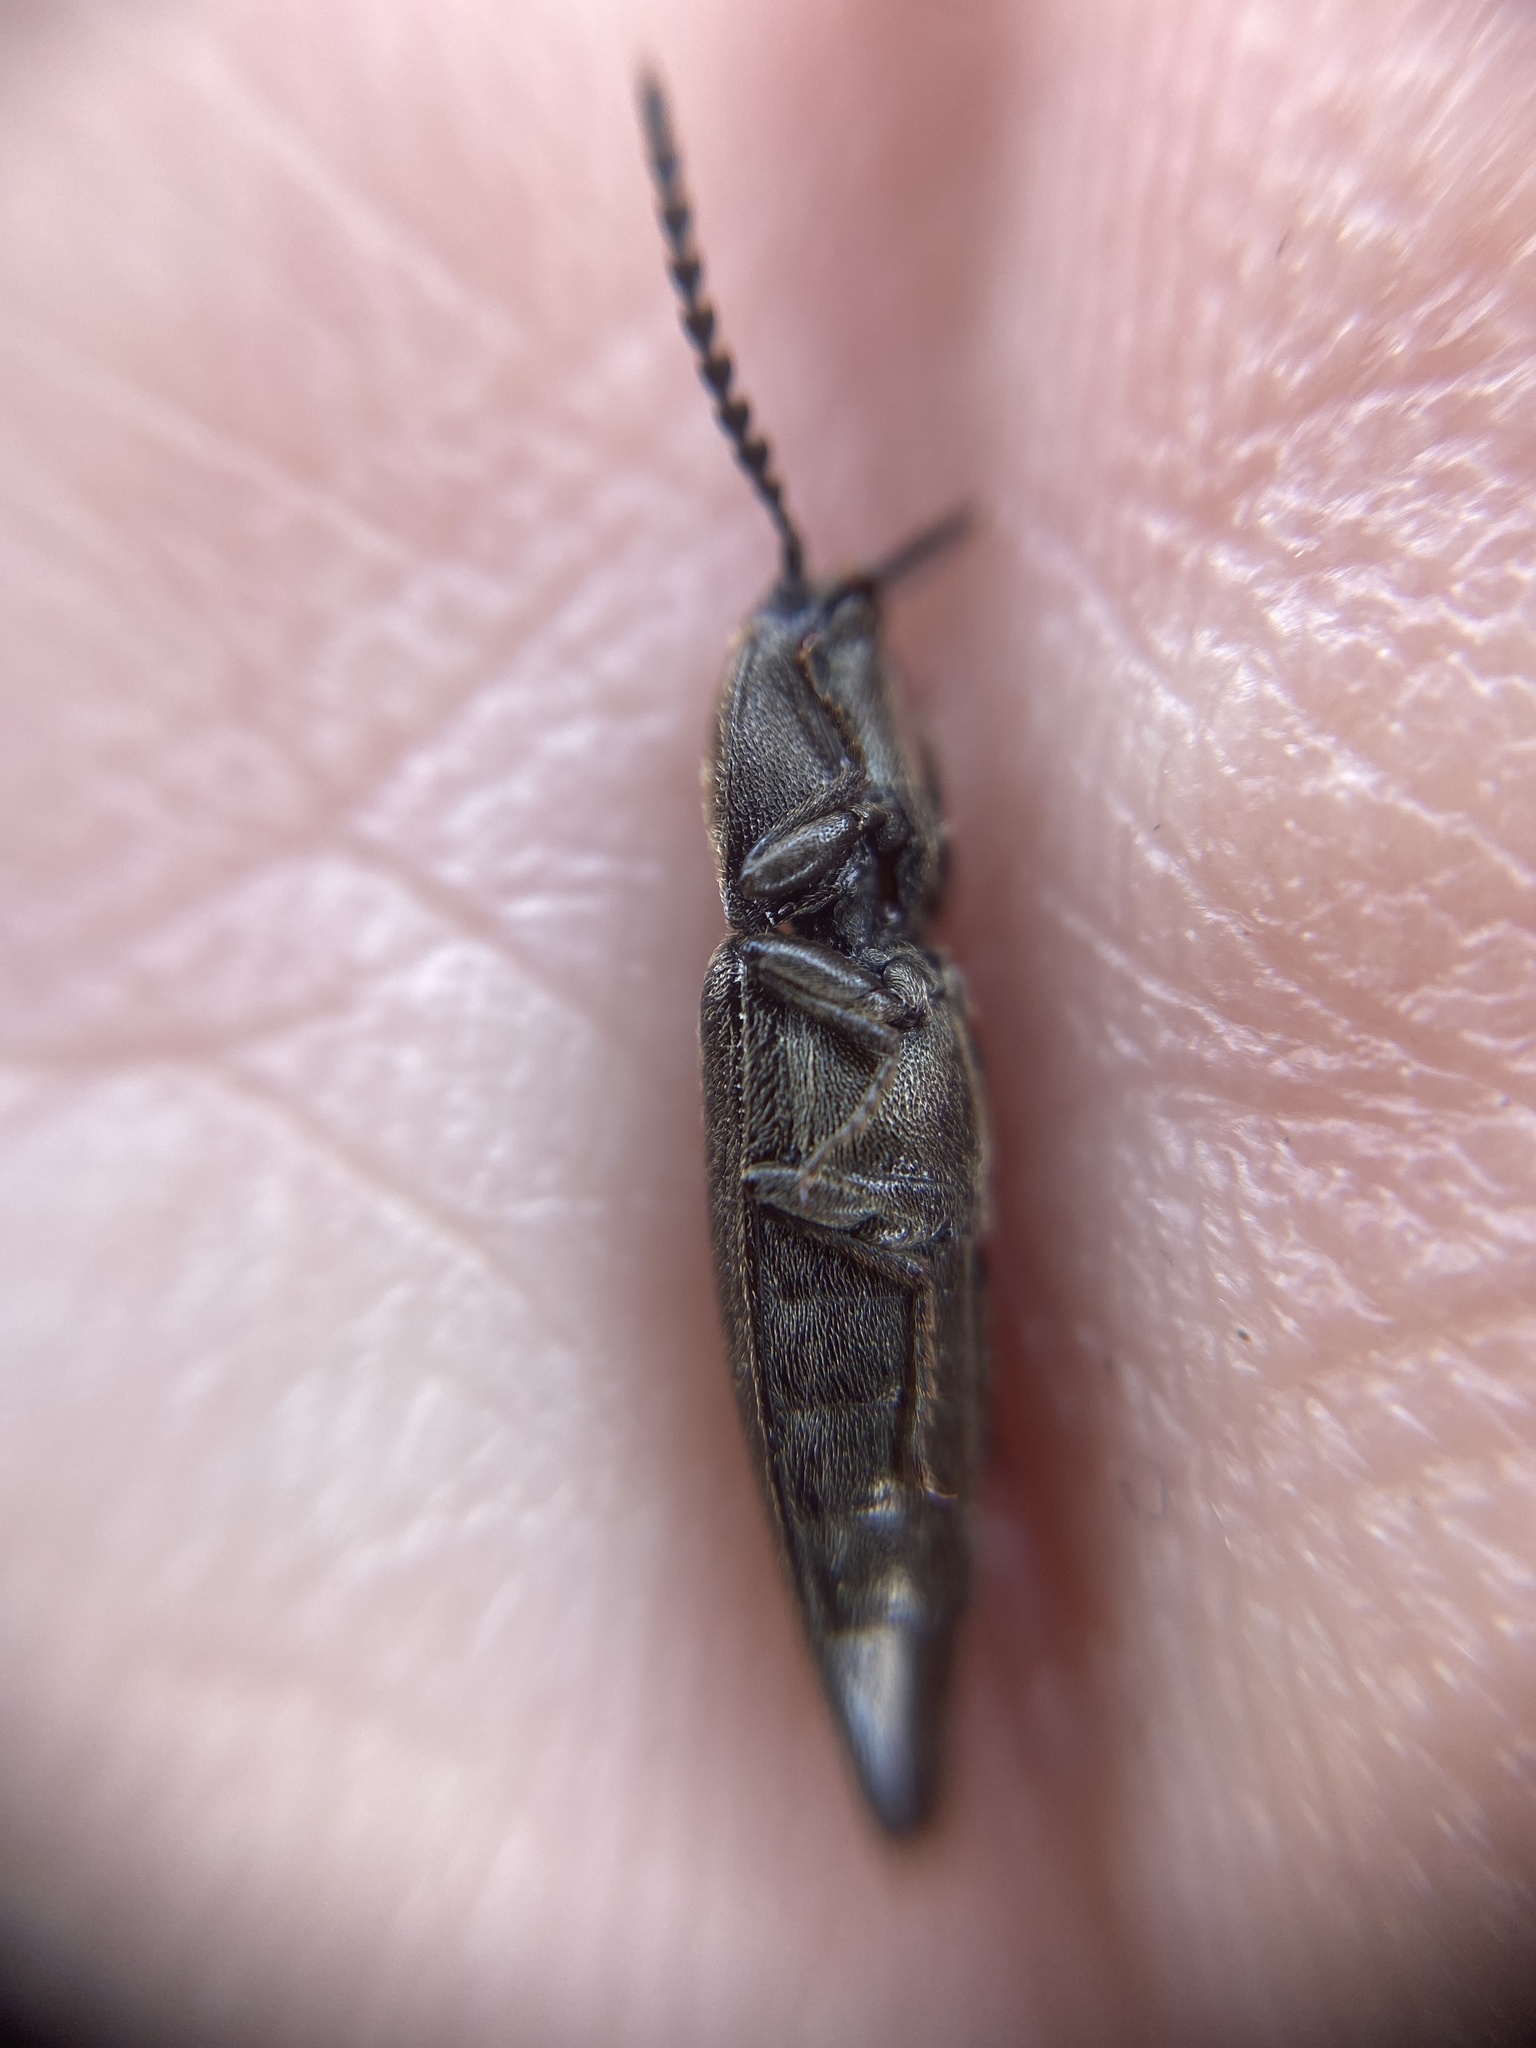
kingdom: Animalia
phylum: Arthropoda
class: Insecta
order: Coleoptera
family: Elateridae
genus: Cidnopus
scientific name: Cidnopus pilosus
